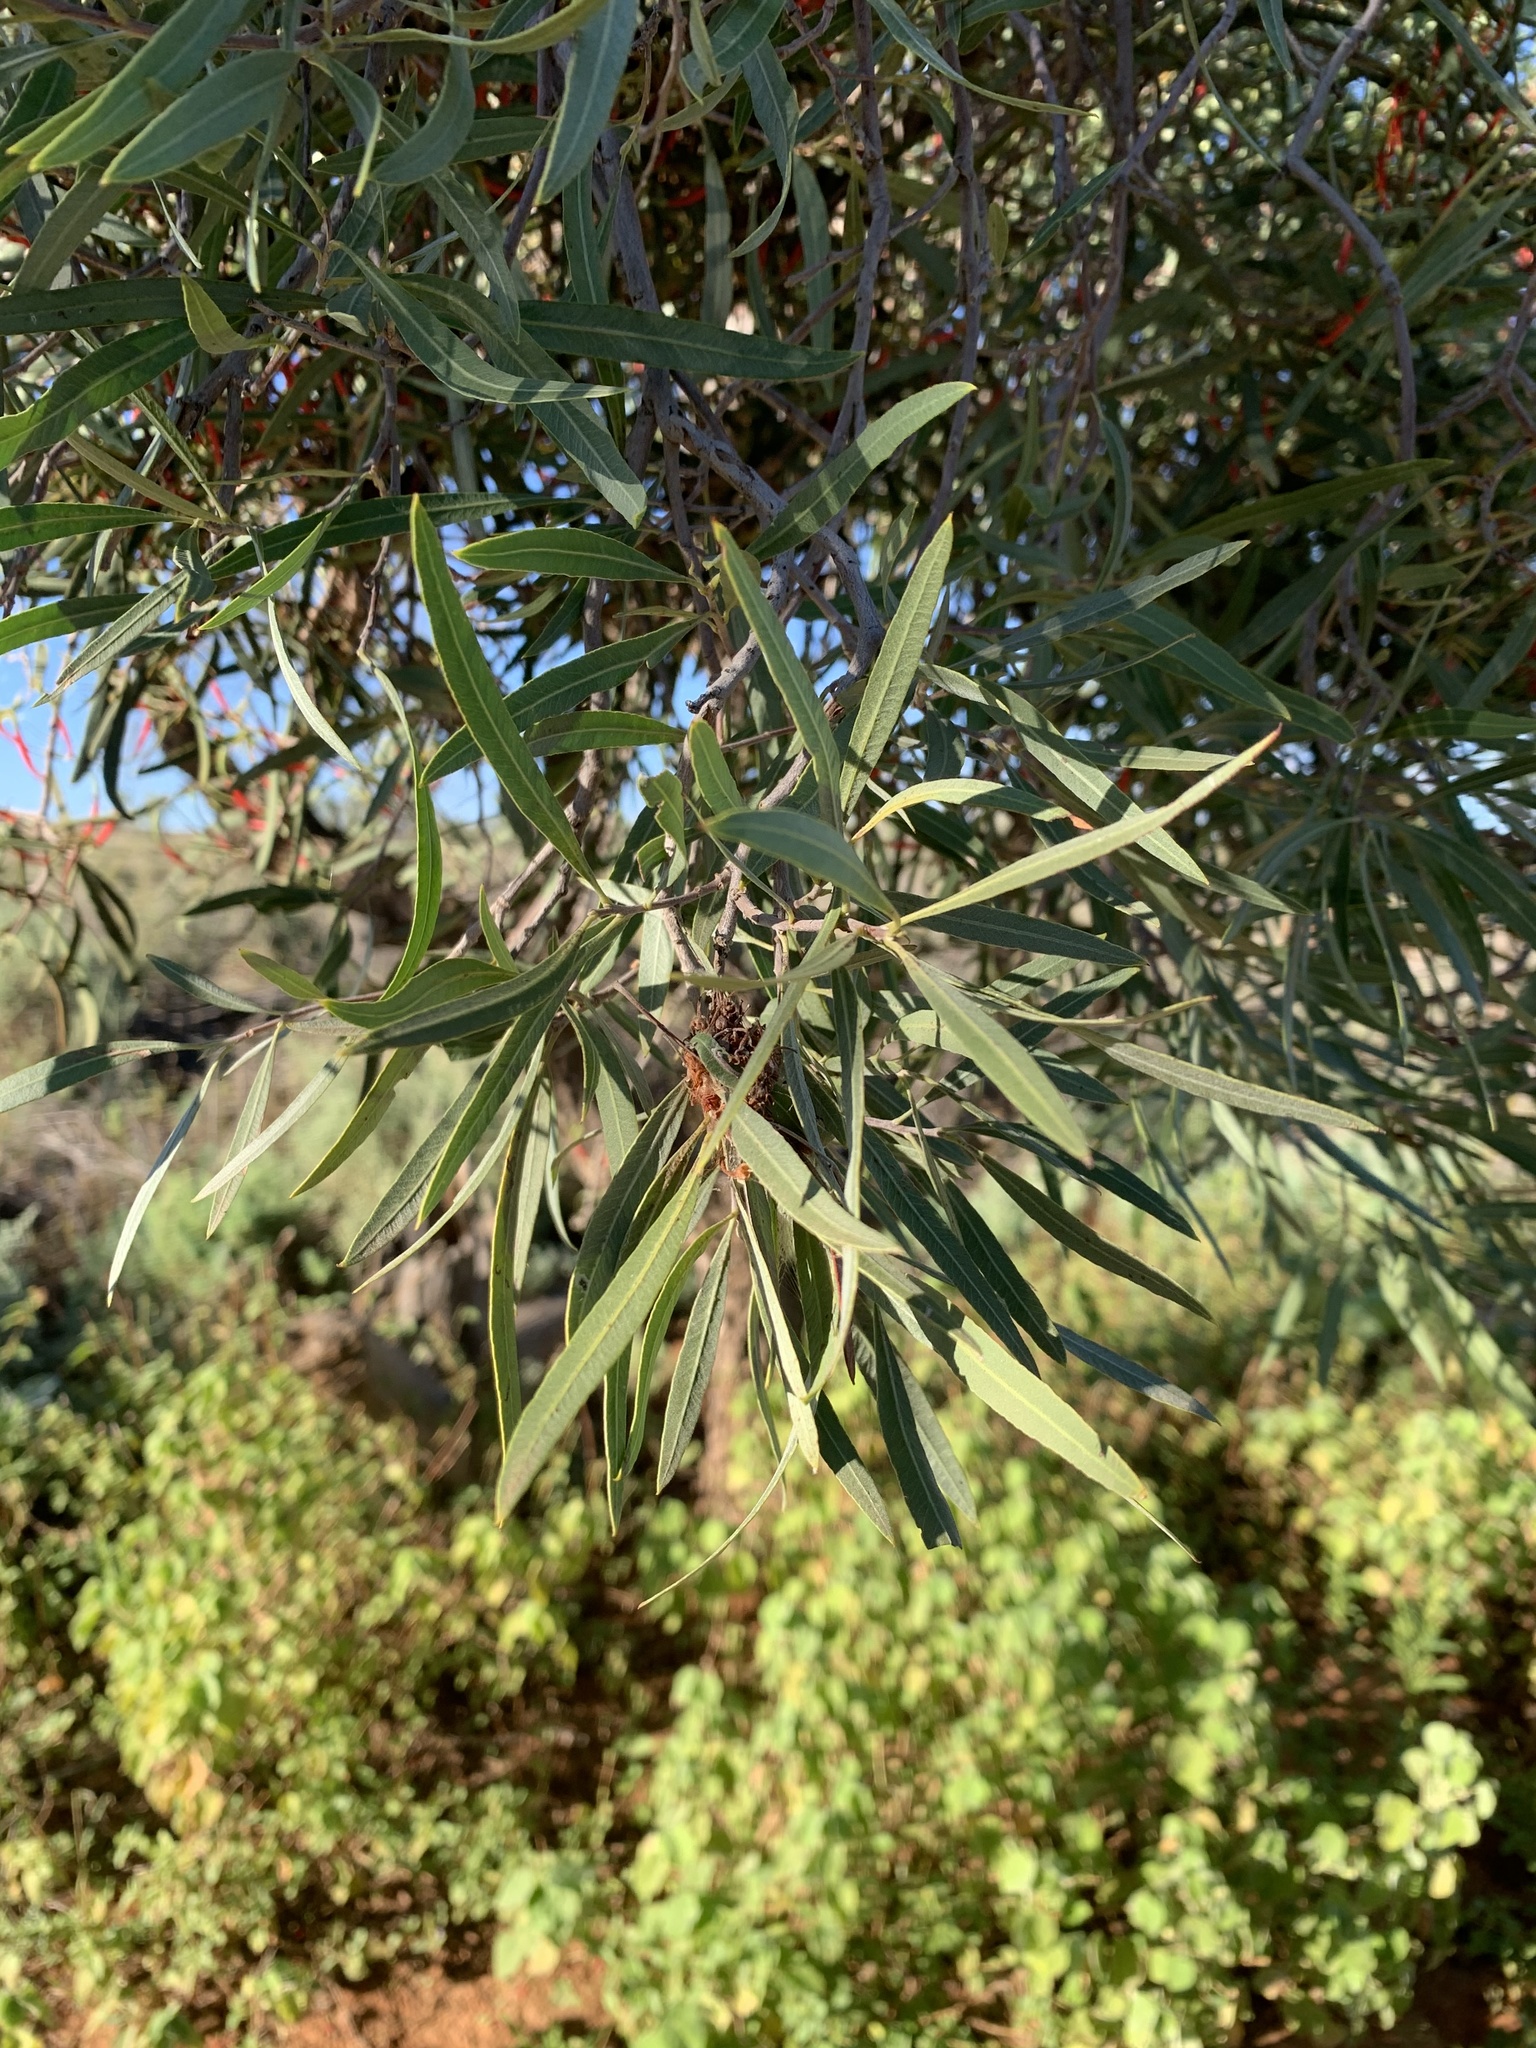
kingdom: Plantae
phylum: Tracheophyta
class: Magnoliopsida
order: Sapindales
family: Sapindaceae
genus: Alectryon
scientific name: Alectryon oleifolius
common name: Australian rosewood
